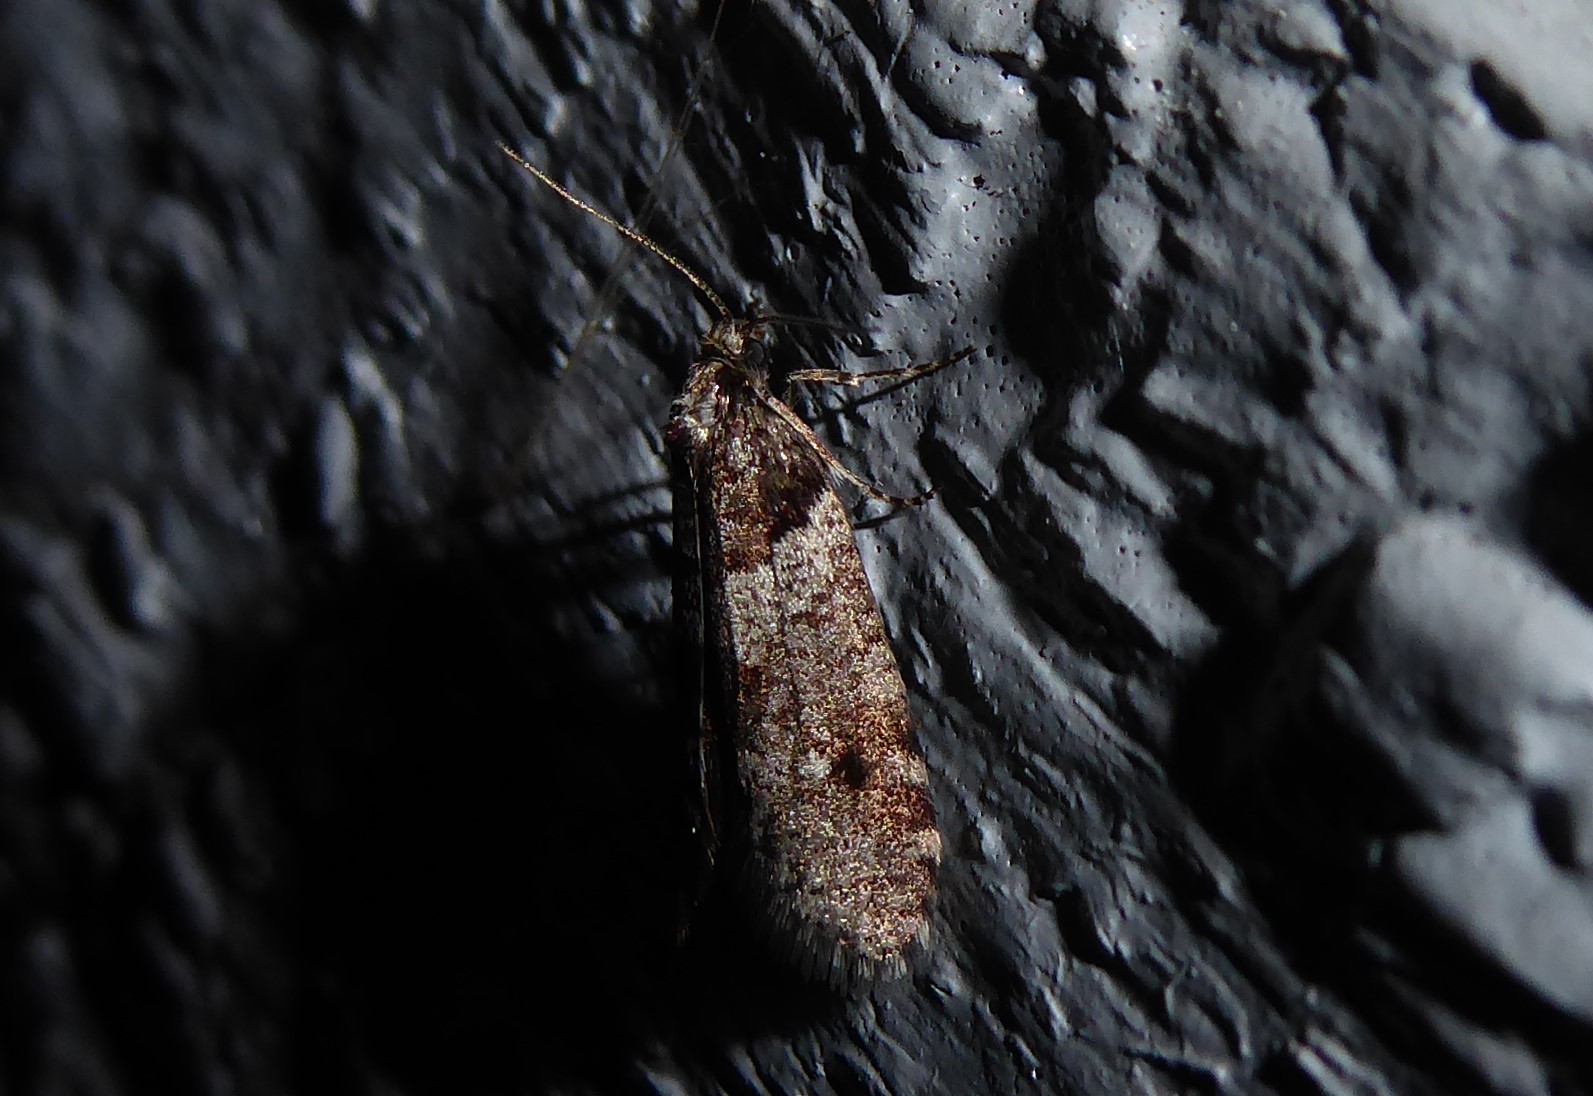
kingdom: Animalia
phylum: Arthropoda
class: Insecta
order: Lepidoptera
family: Psychidae
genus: Lepidoscia
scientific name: Lepidoscia heliochares
